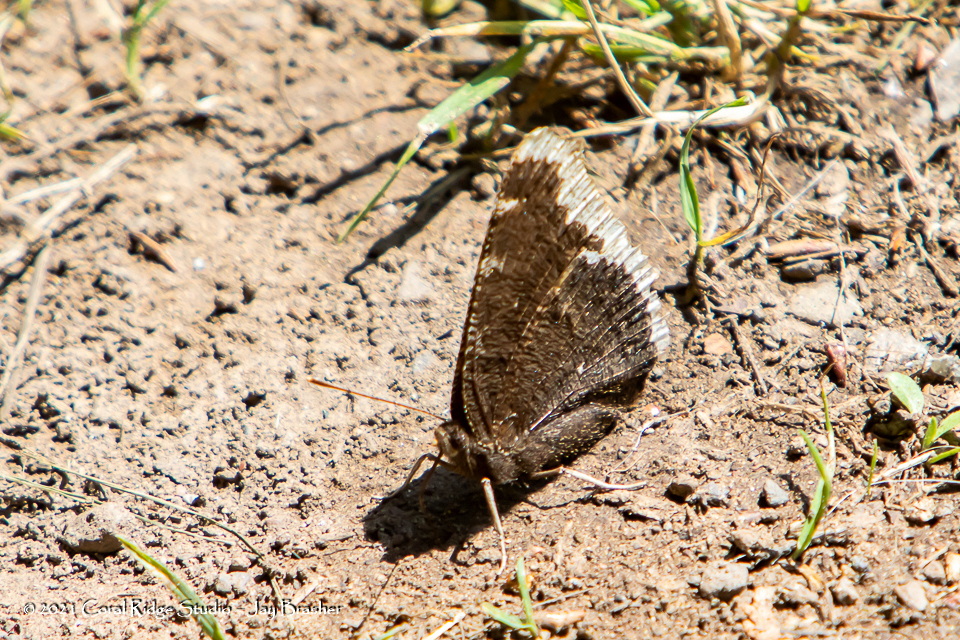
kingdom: Animalia
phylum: Arthropoda
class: Insecta
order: Lepidoptera
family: Nymphalidae
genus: Nymphalis
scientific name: Nymphalis antiopa
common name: Camberwell beauty
